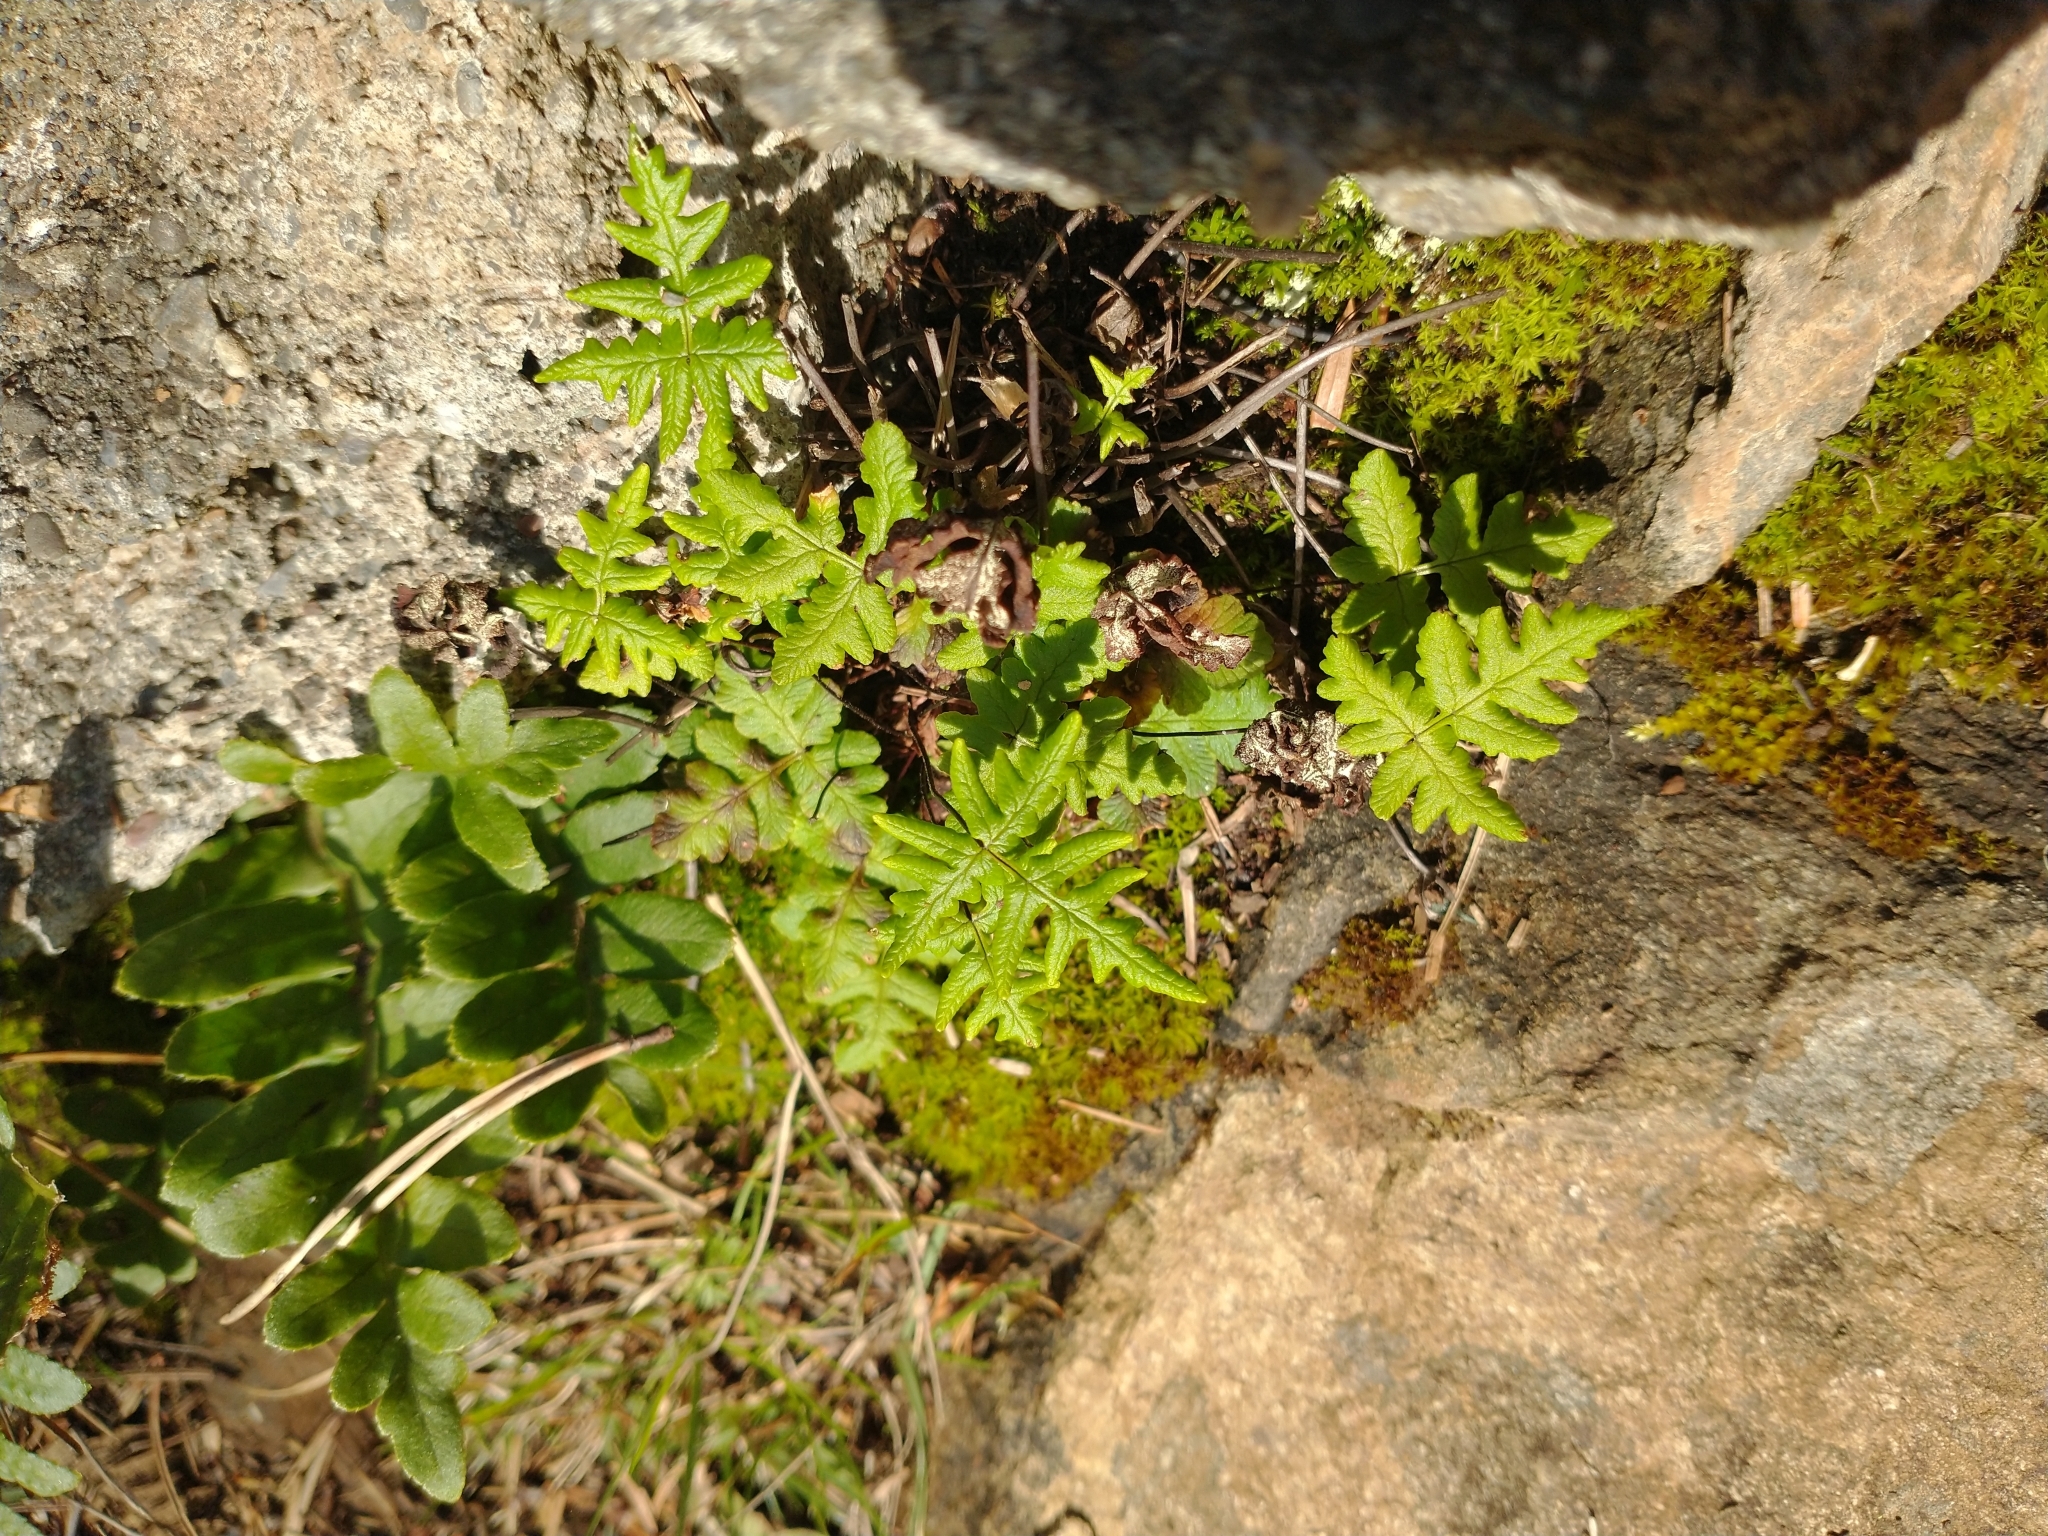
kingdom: Plantae
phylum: Tracheophyta
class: Polypodiopsida
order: Polypodiales
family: Pteridaceae
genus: Pentagramma
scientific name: Pentagramma triangularis
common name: Gold fern
